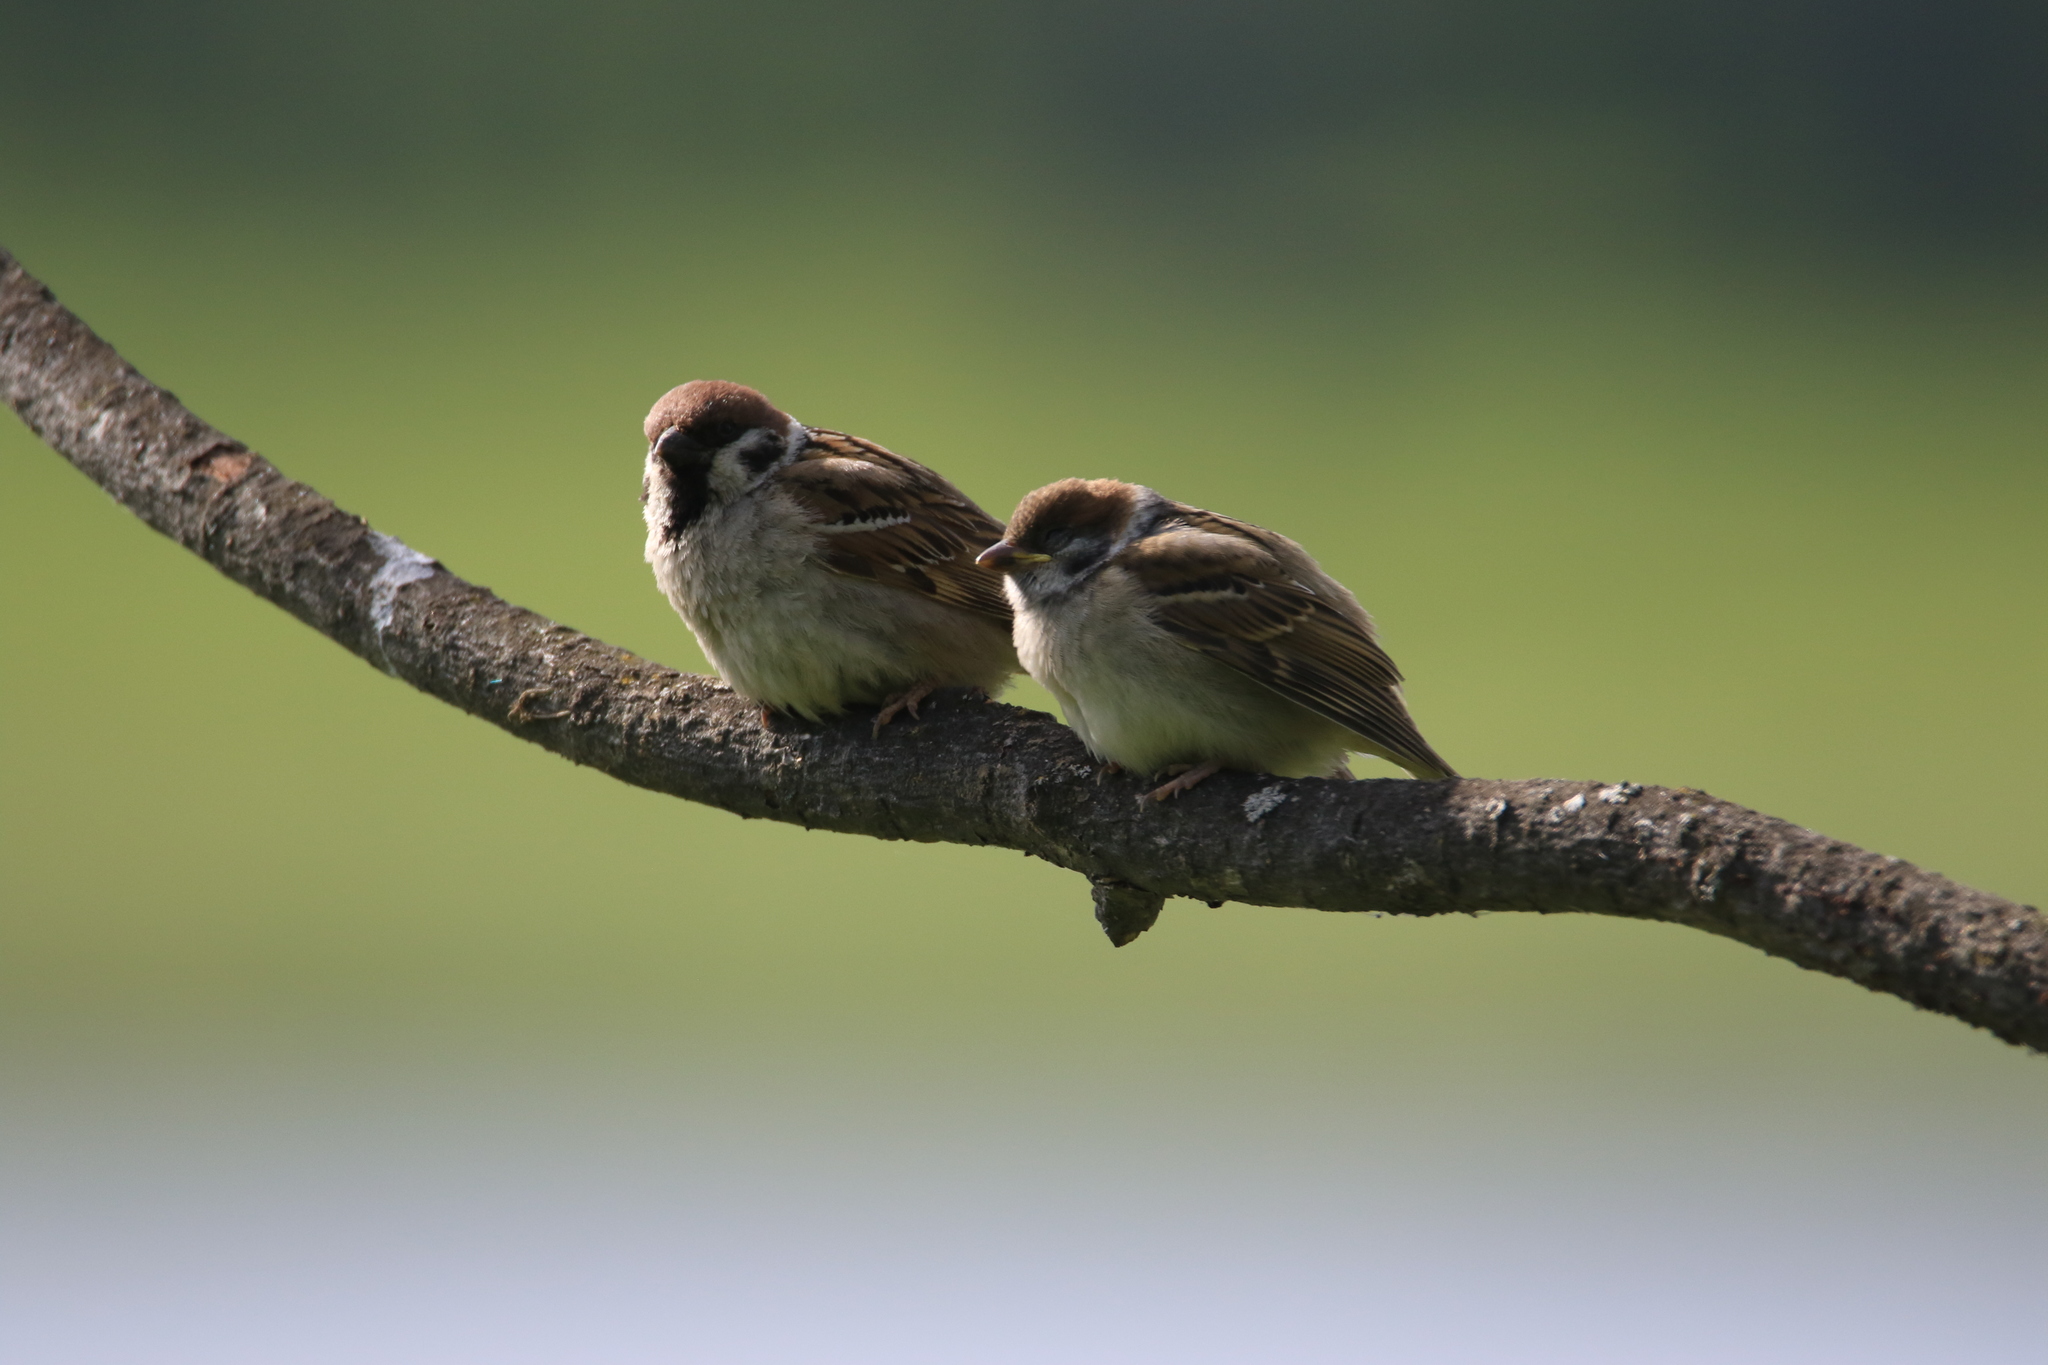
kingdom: Animalia
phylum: Chordata
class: Aves
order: Passeriformes
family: Passeridae
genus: Passer
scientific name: Passer montanus
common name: Eurasian tree sparrow
